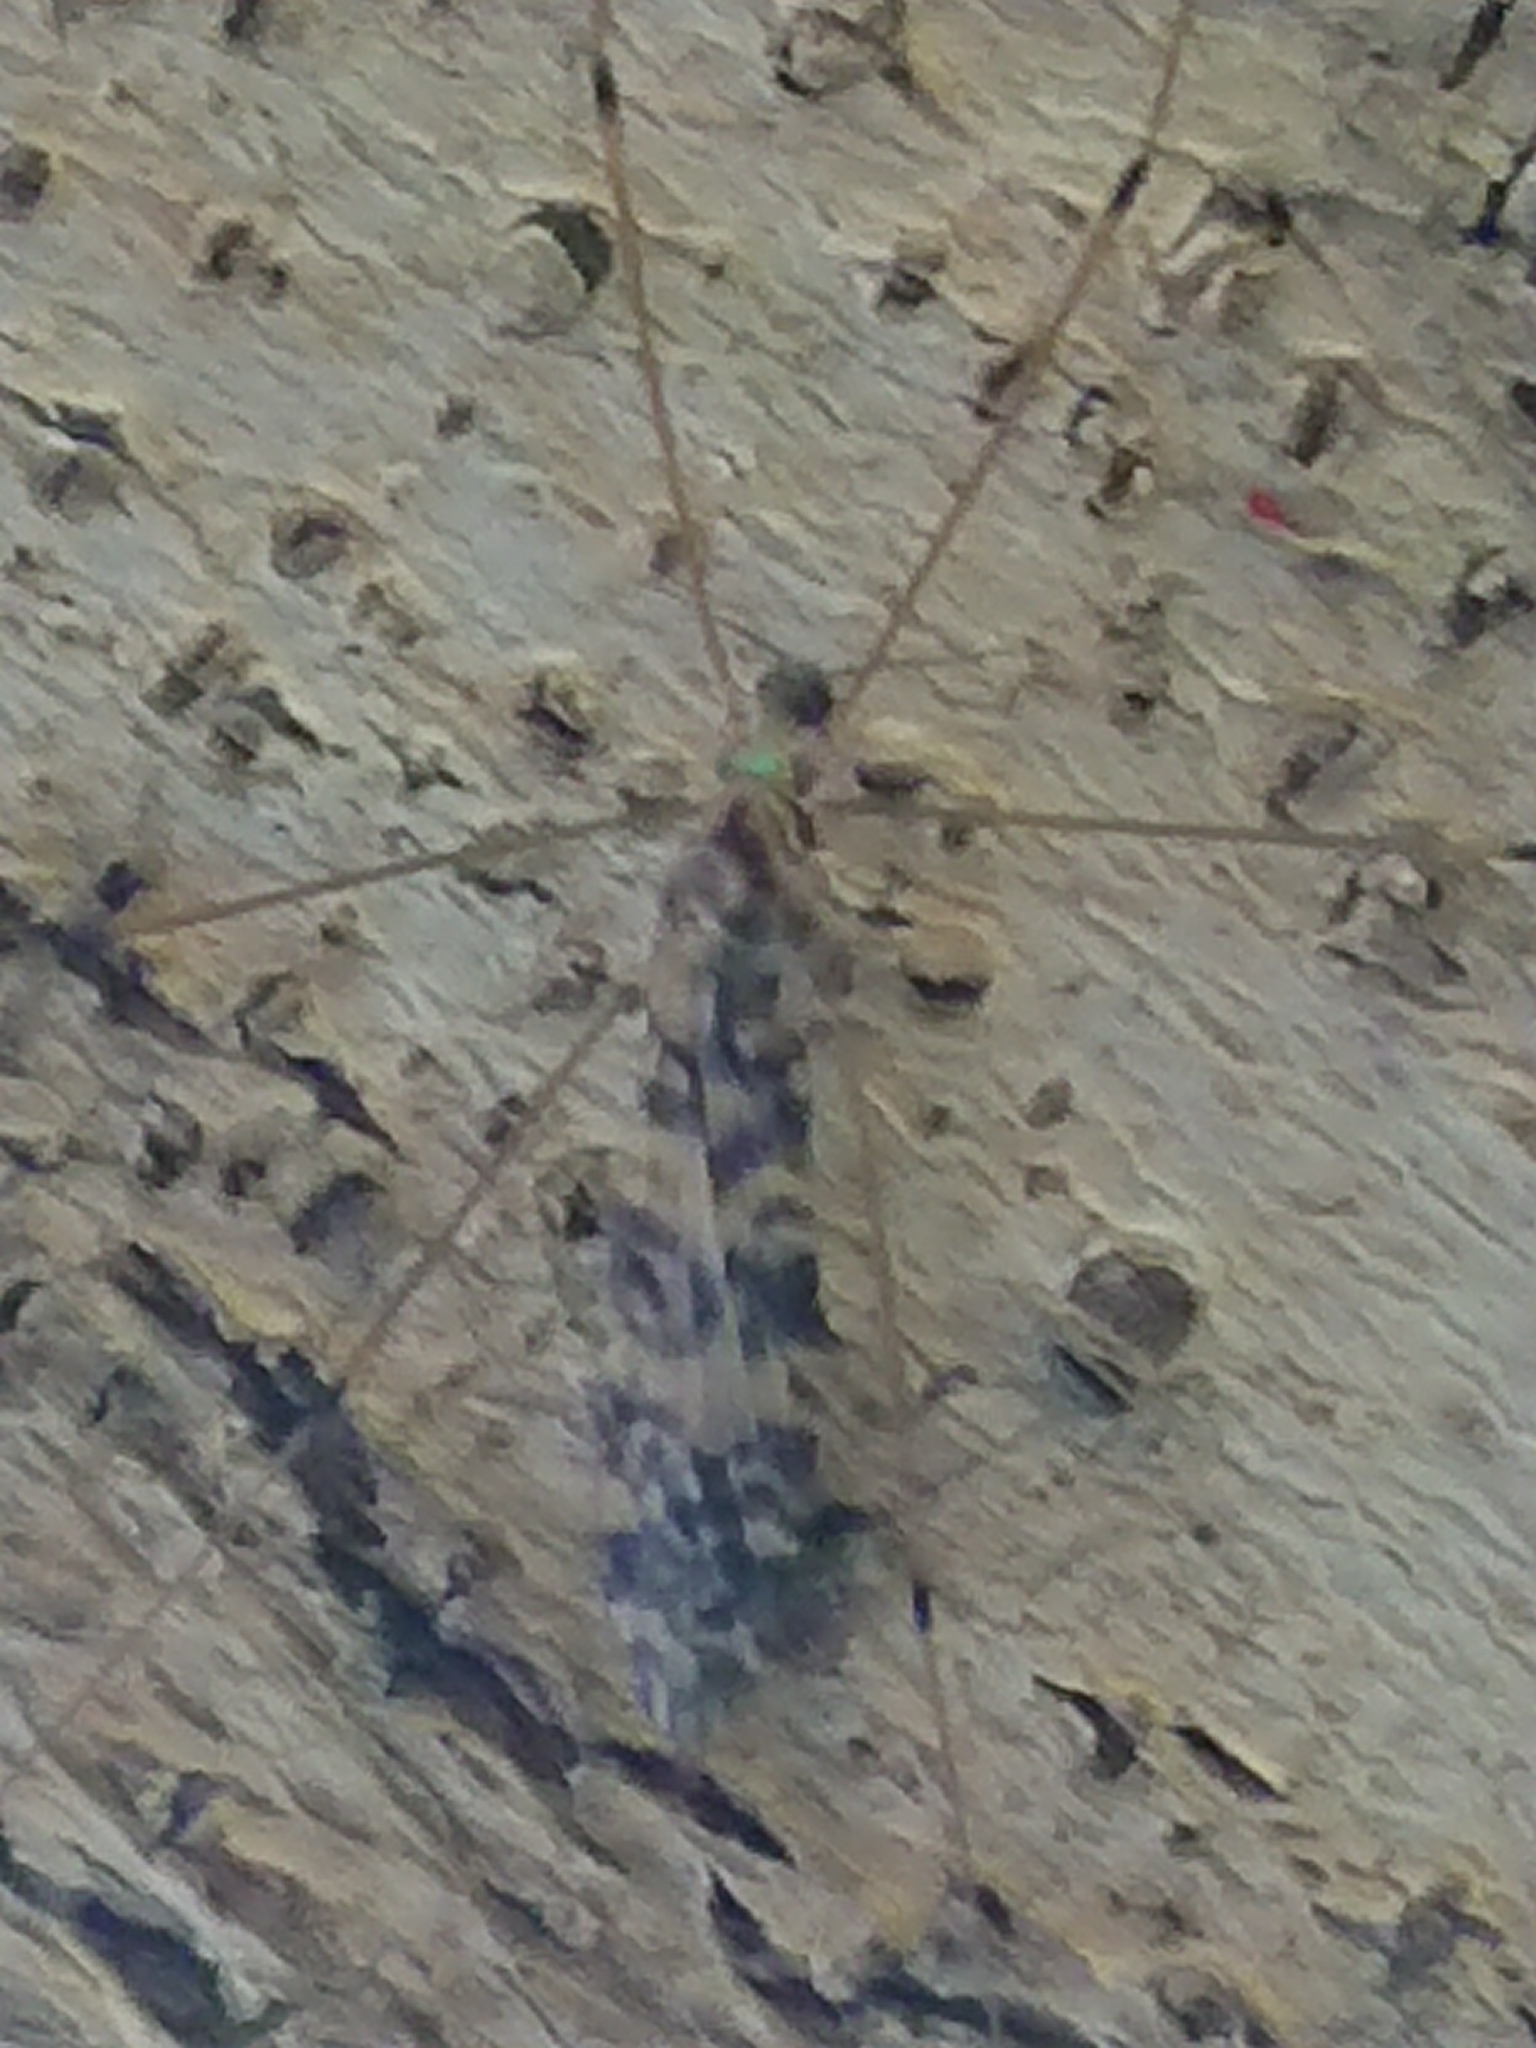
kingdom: Animalia
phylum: Arthropoda
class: Insecta
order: Diptera
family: Limoniidae
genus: Discobola
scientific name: Discobola gibberina
